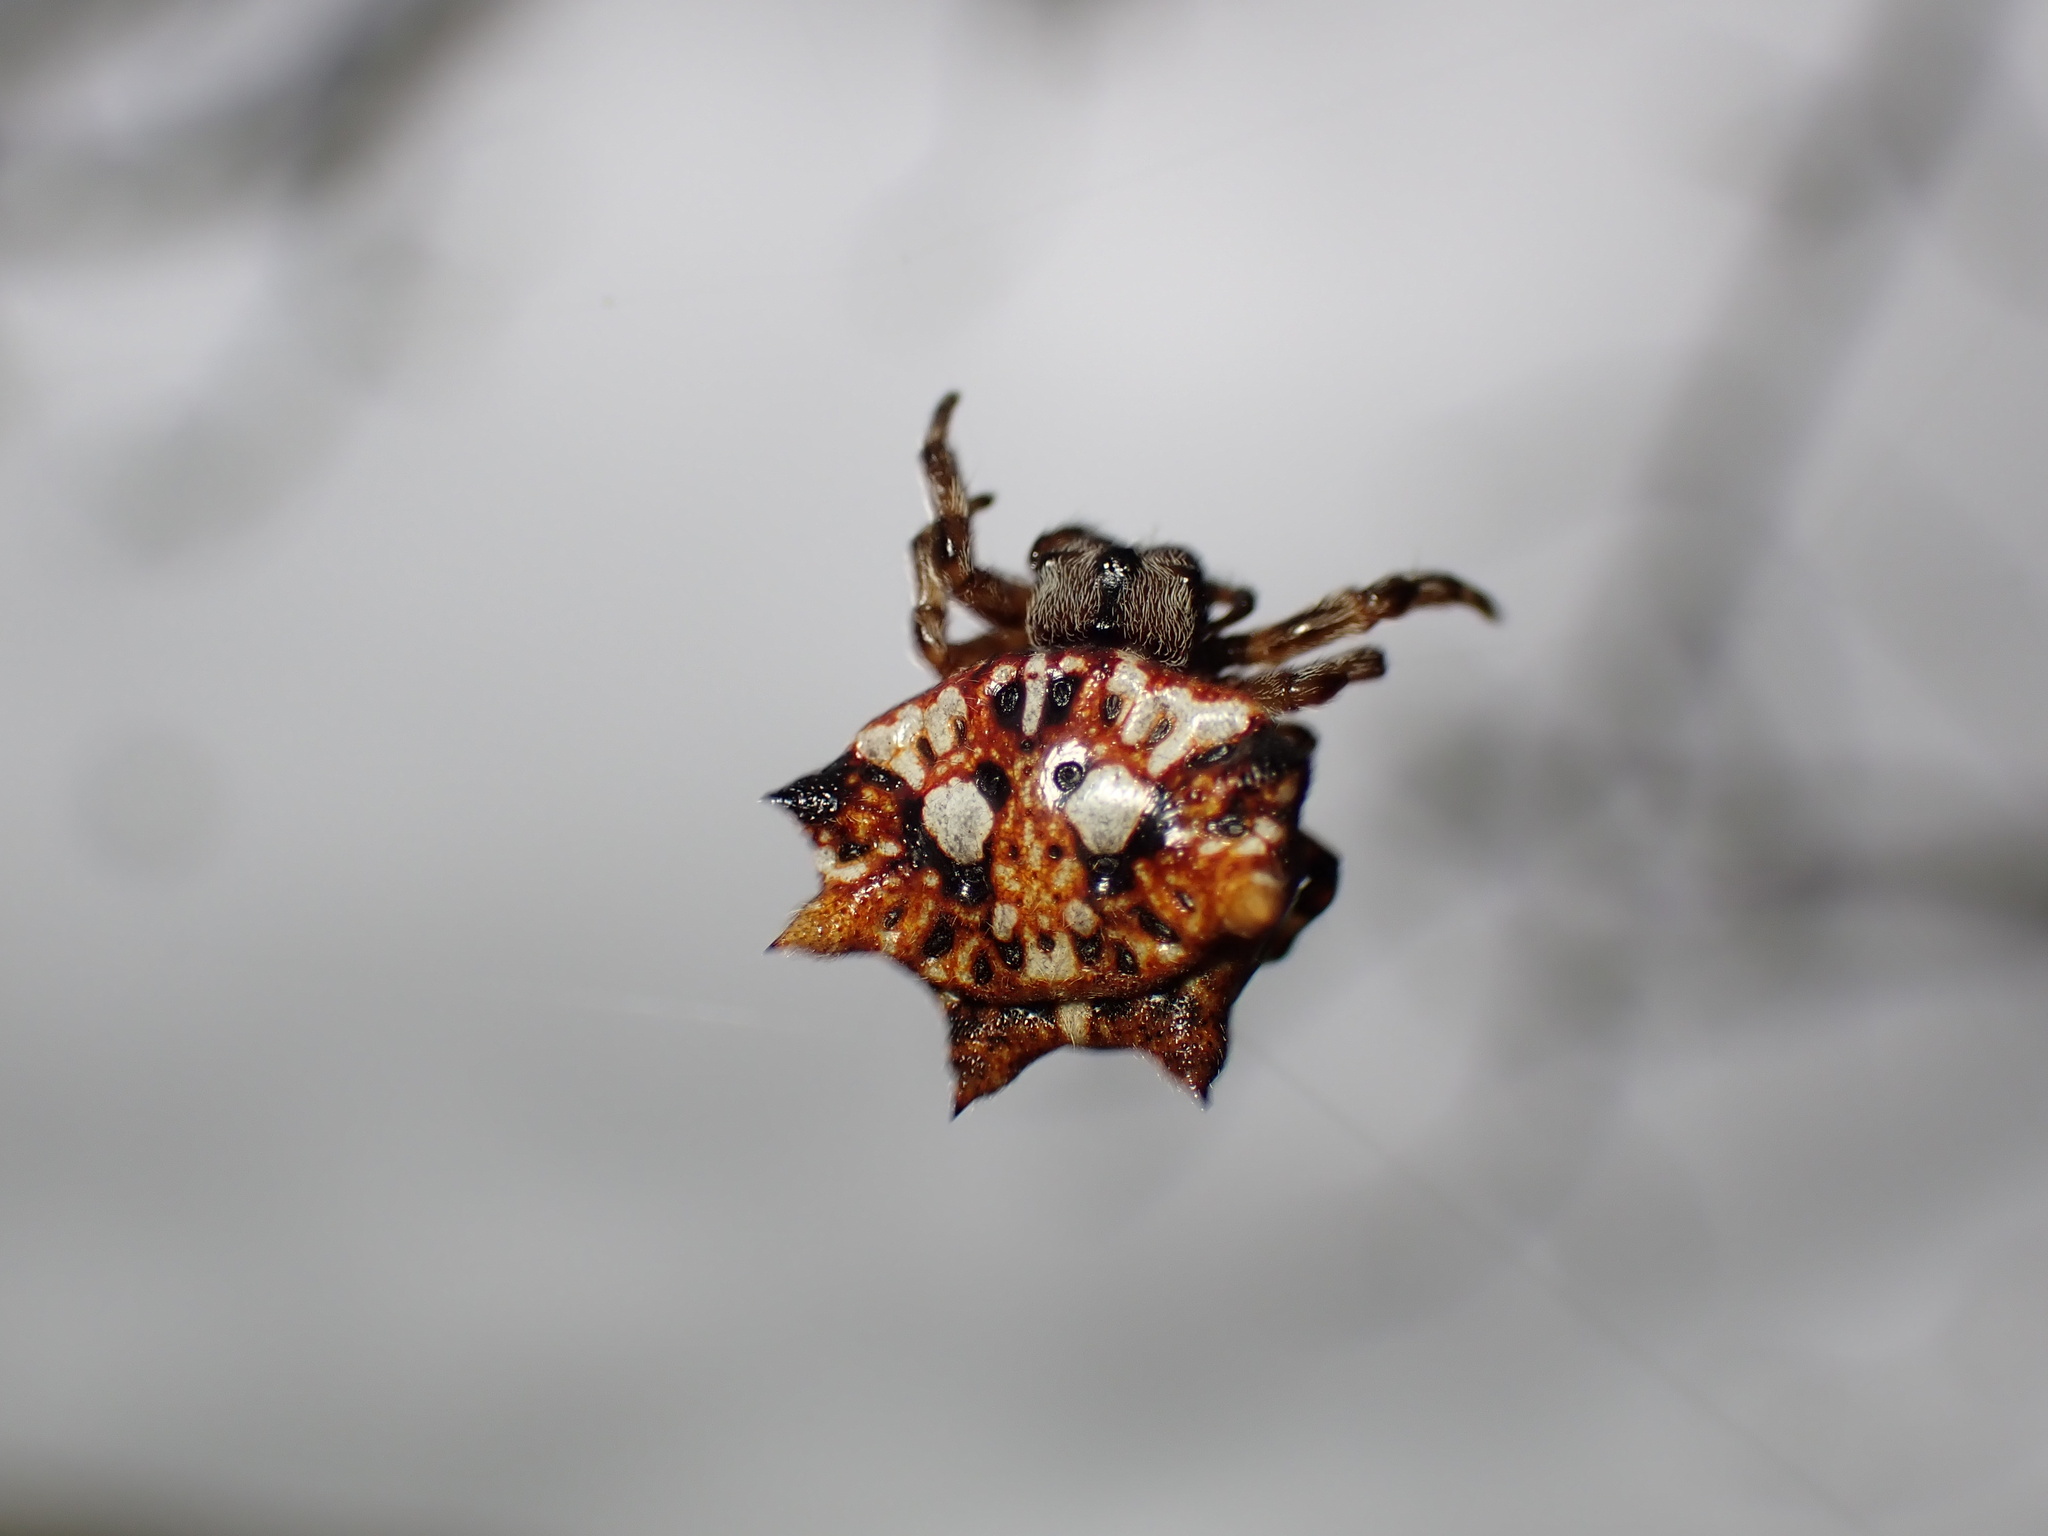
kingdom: Animalia
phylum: Arthropoda
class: Arachnida
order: Araneae
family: Araneidae
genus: Thelacantha
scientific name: Thelacantha brevispina
